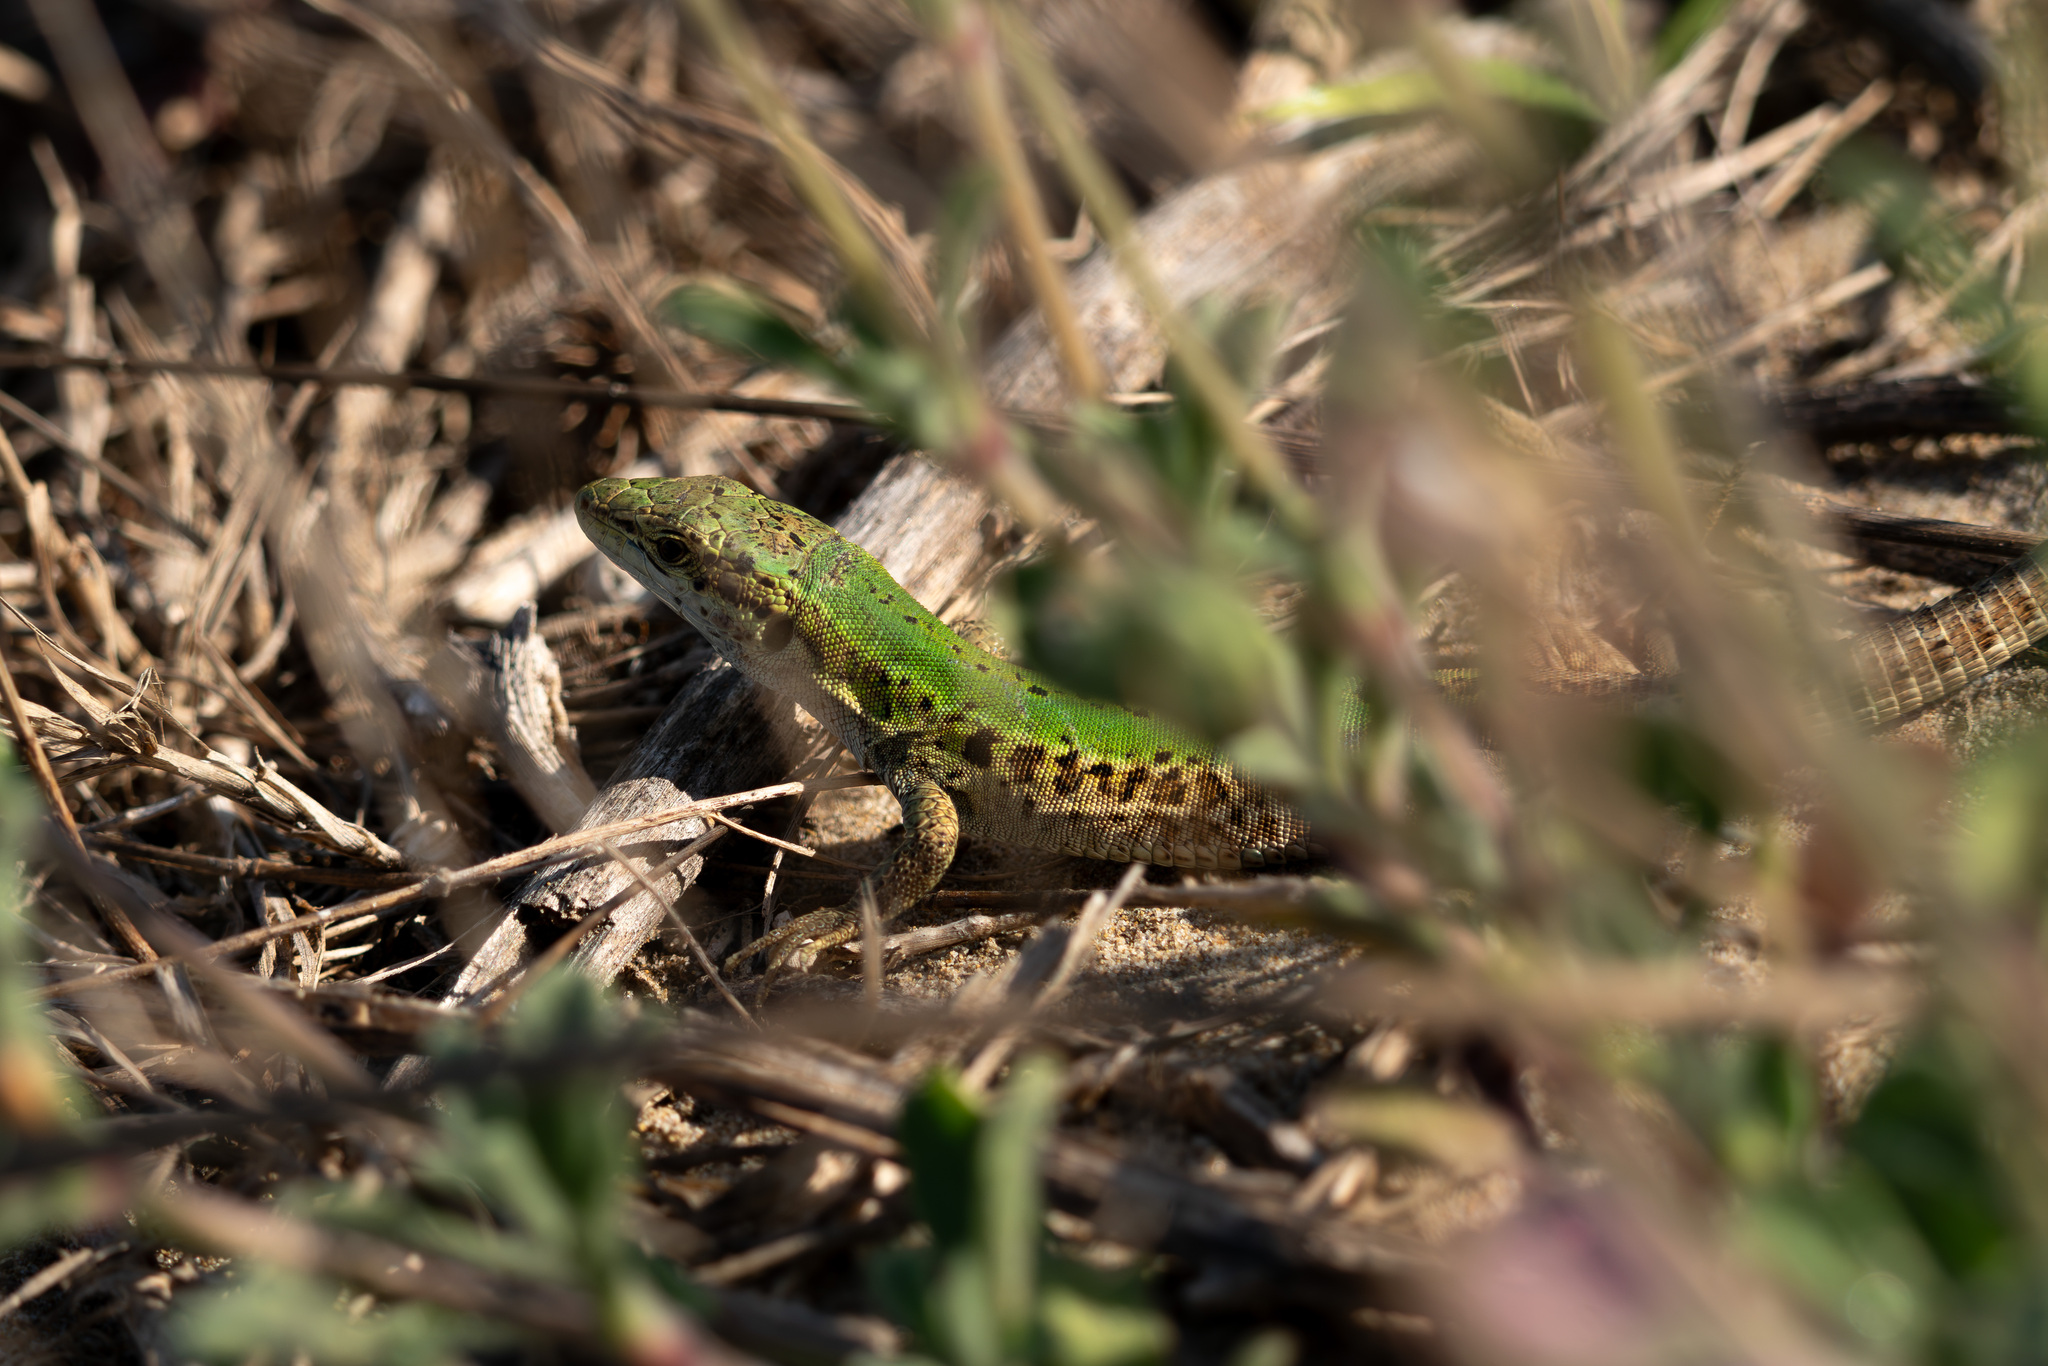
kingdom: Animalia
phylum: Chordata
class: Squamata
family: Lacertidae
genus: Podarcis
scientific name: Podarcis siculus
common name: Italian wall lizard
